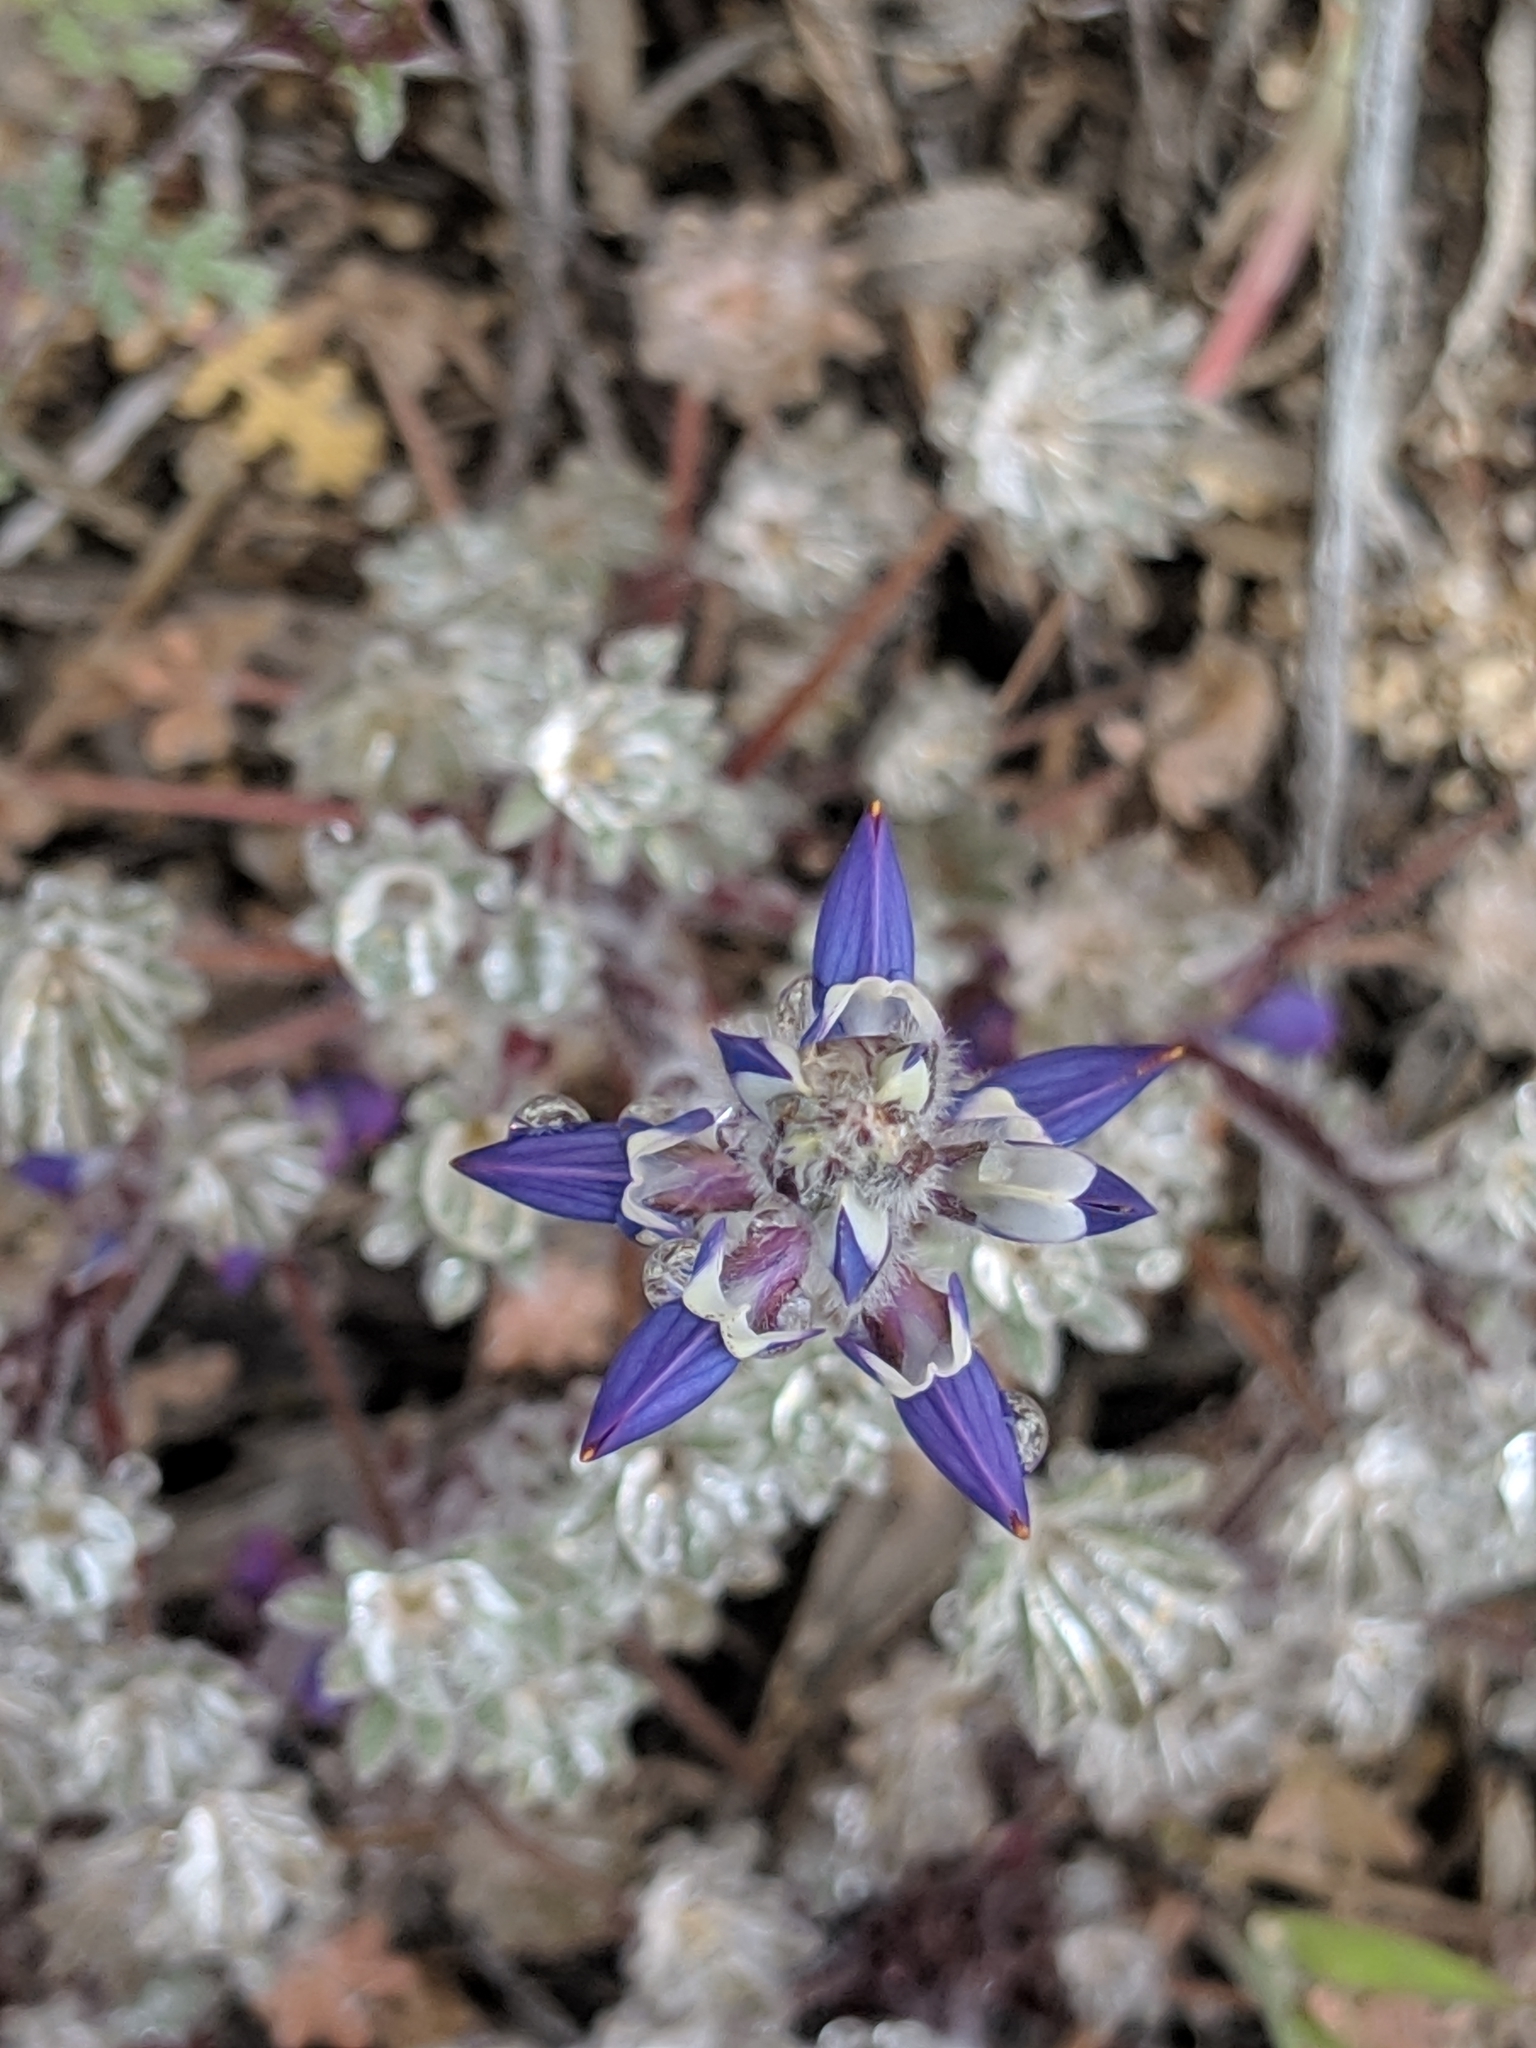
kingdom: Plantae
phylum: Tracheophyta
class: Magnoliopsida
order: Fabales
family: Fabaceae
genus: Lupinus
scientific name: Lupinus concinnus
